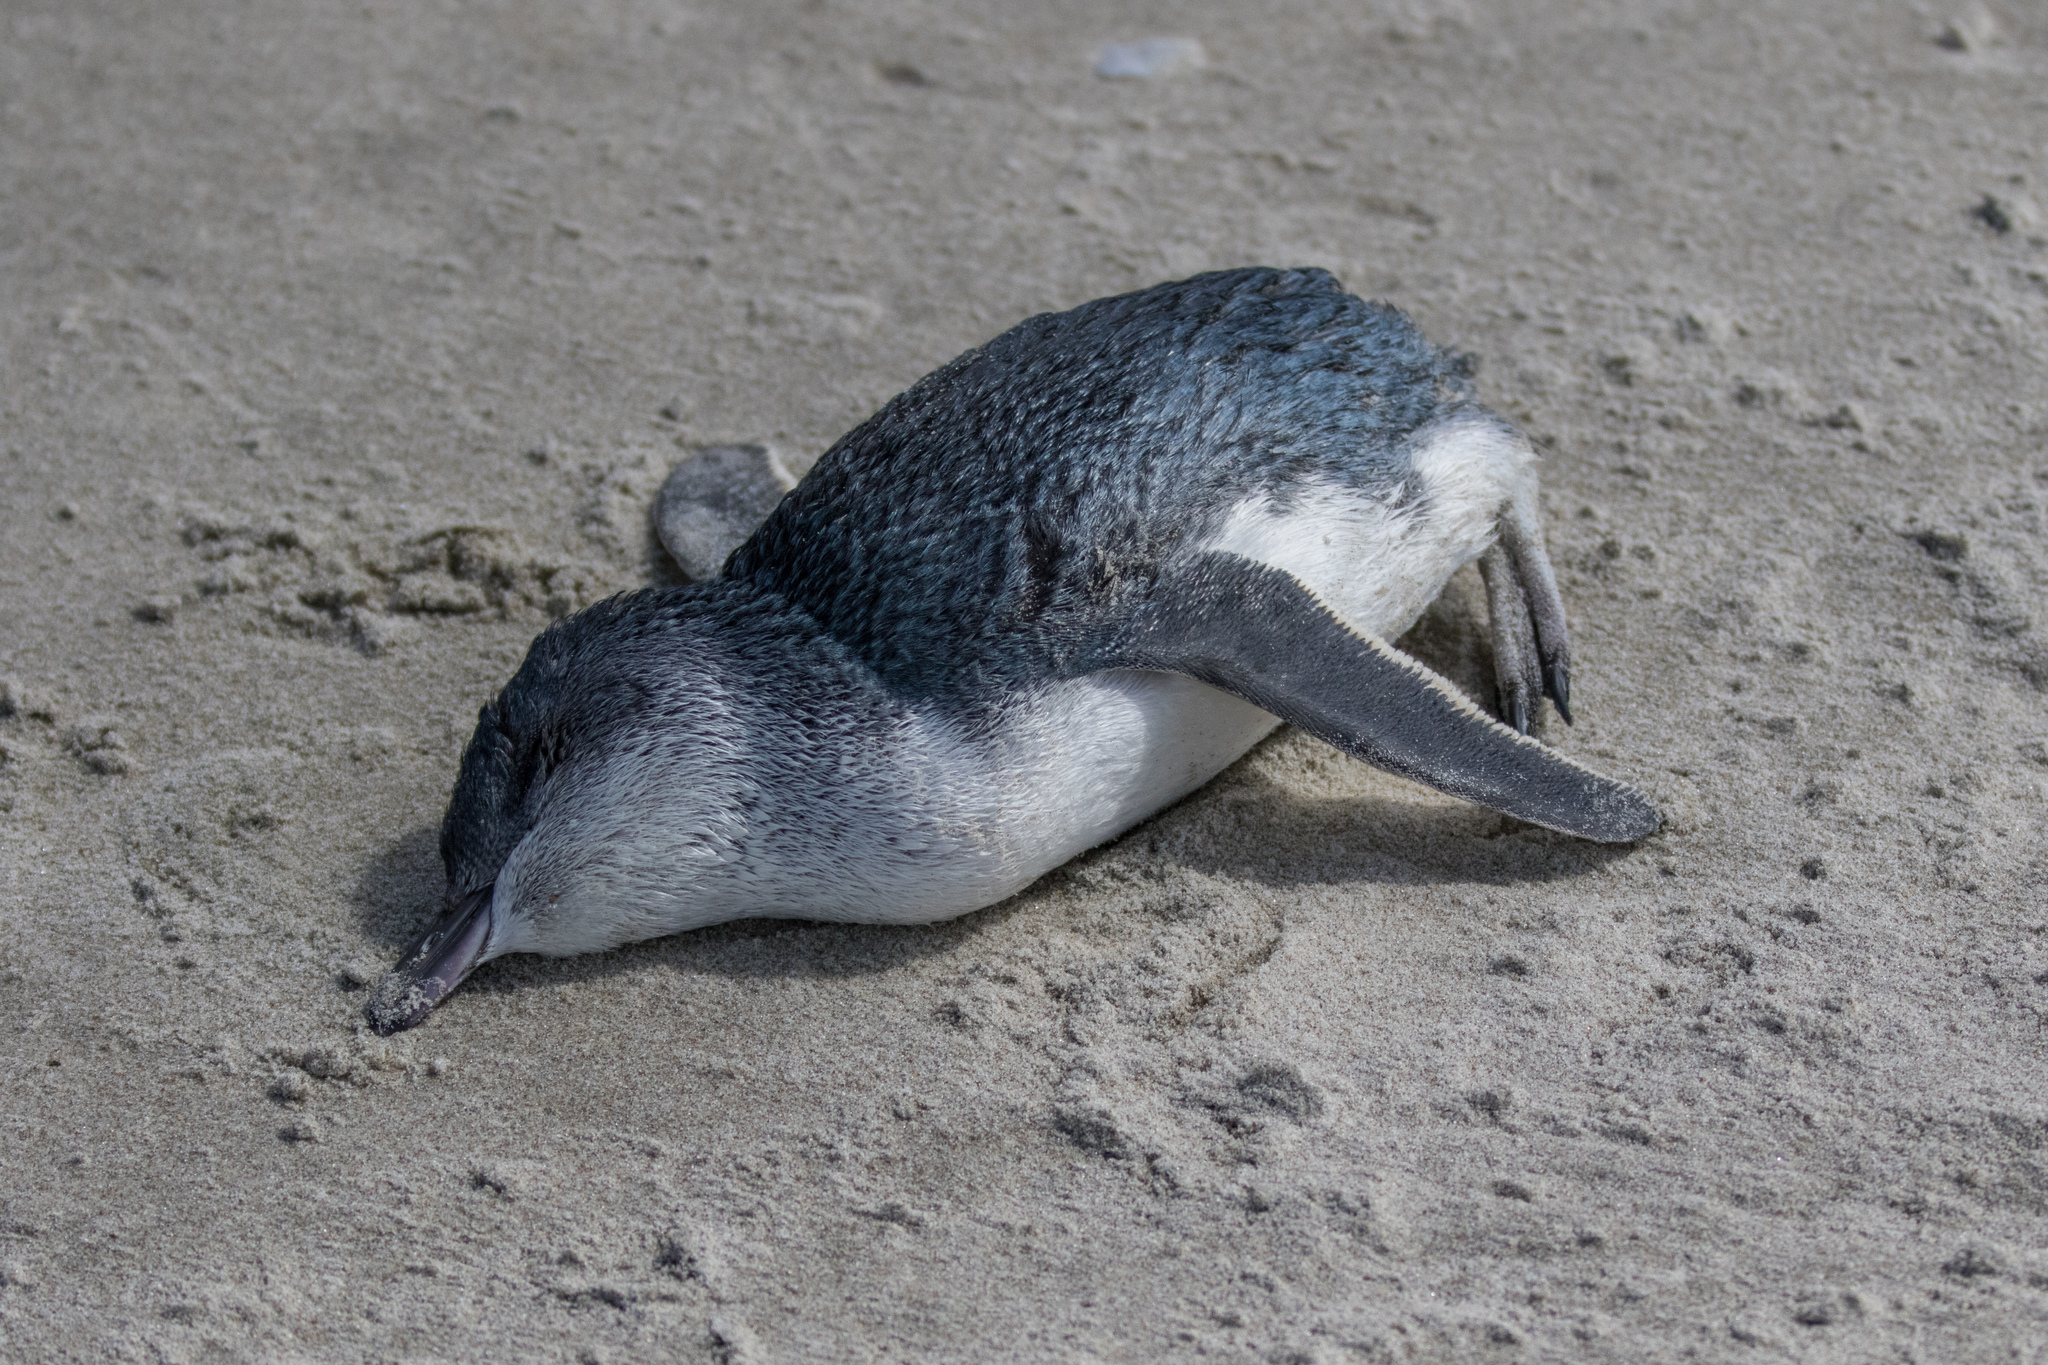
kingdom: Animalia
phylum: Chordata
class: Aves
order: Sphenisciformes
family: Spheniscidae
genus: Eudyptula
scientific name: Eudyptula minor
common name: Little penguin
